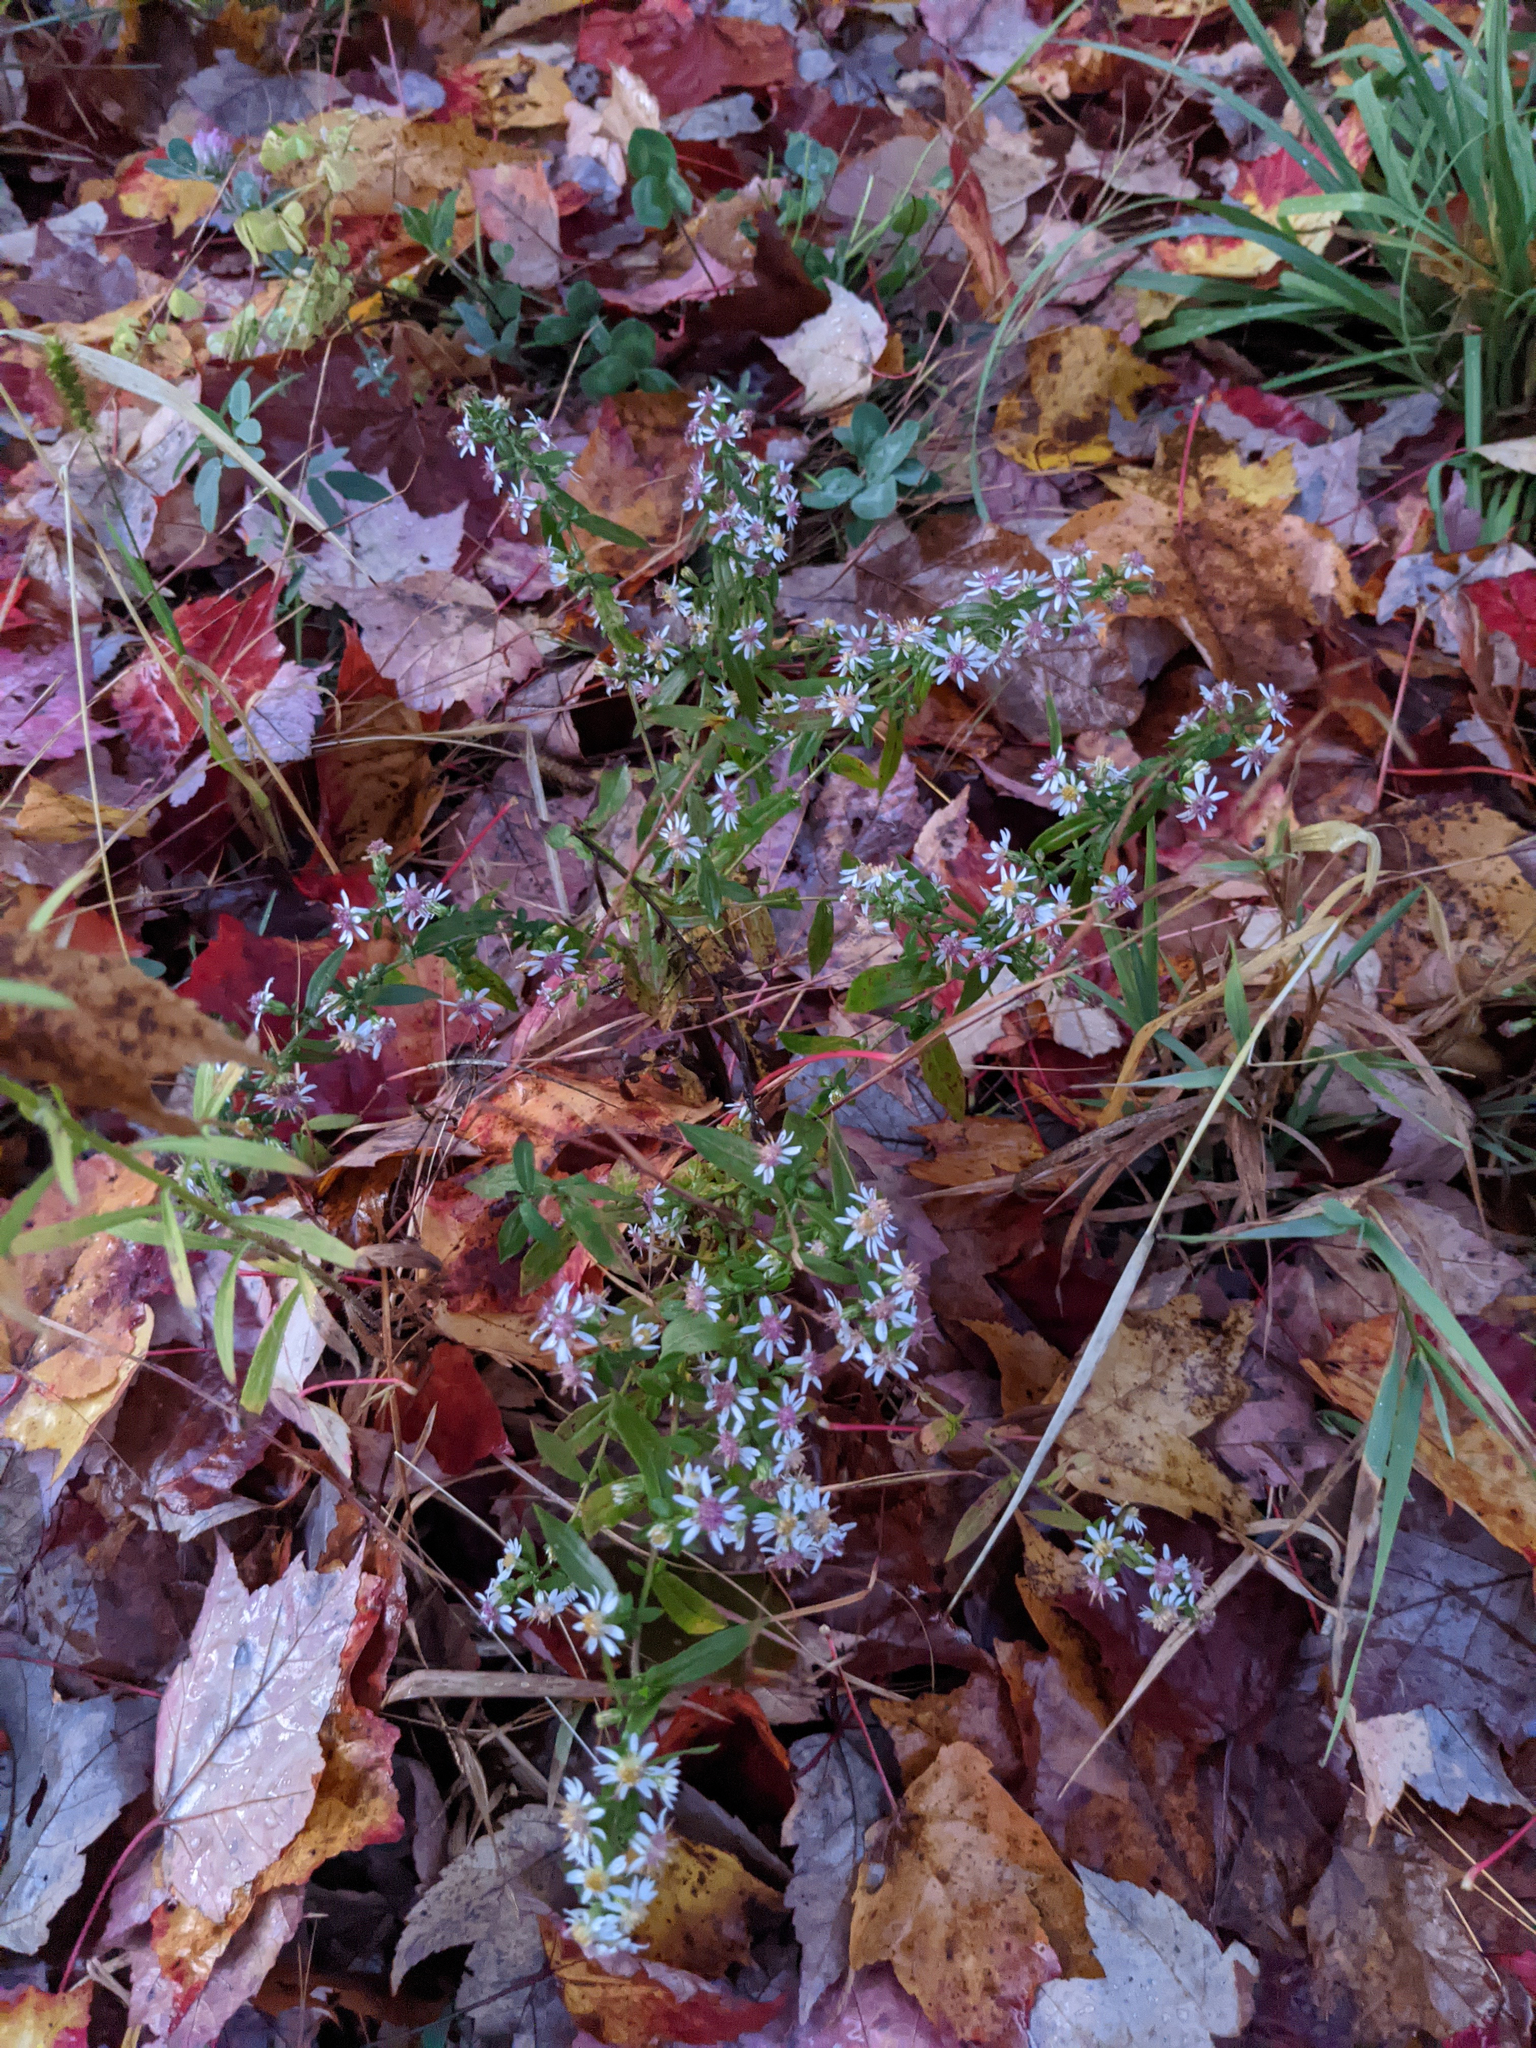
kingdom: Plantae
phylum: Tracheophyta
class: Magnoliopsida
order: Asterales
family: Asteraceae
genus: Symphyotrichum
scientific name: Symphyotrichum lateriflorum
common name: Calico aster
